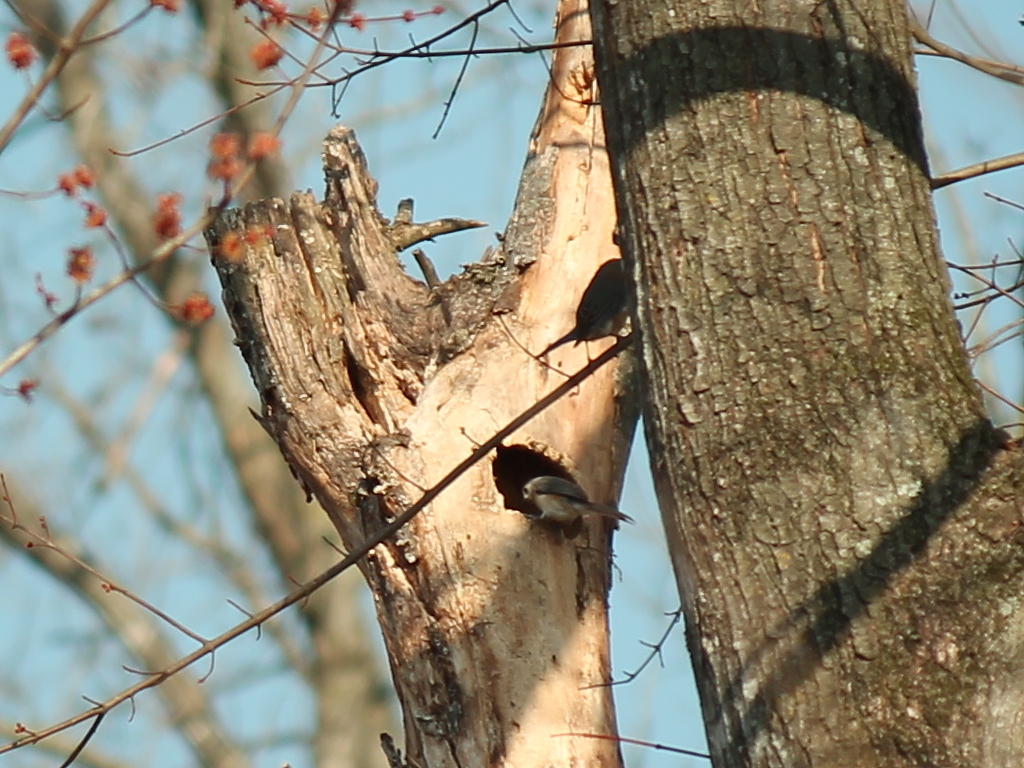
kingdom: Animalia
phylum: Chordata
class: Aves
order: Passeriformes
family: Paridae
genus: Baeolophus
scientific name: Baeolophus bicolor
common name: Tufted titmouse
